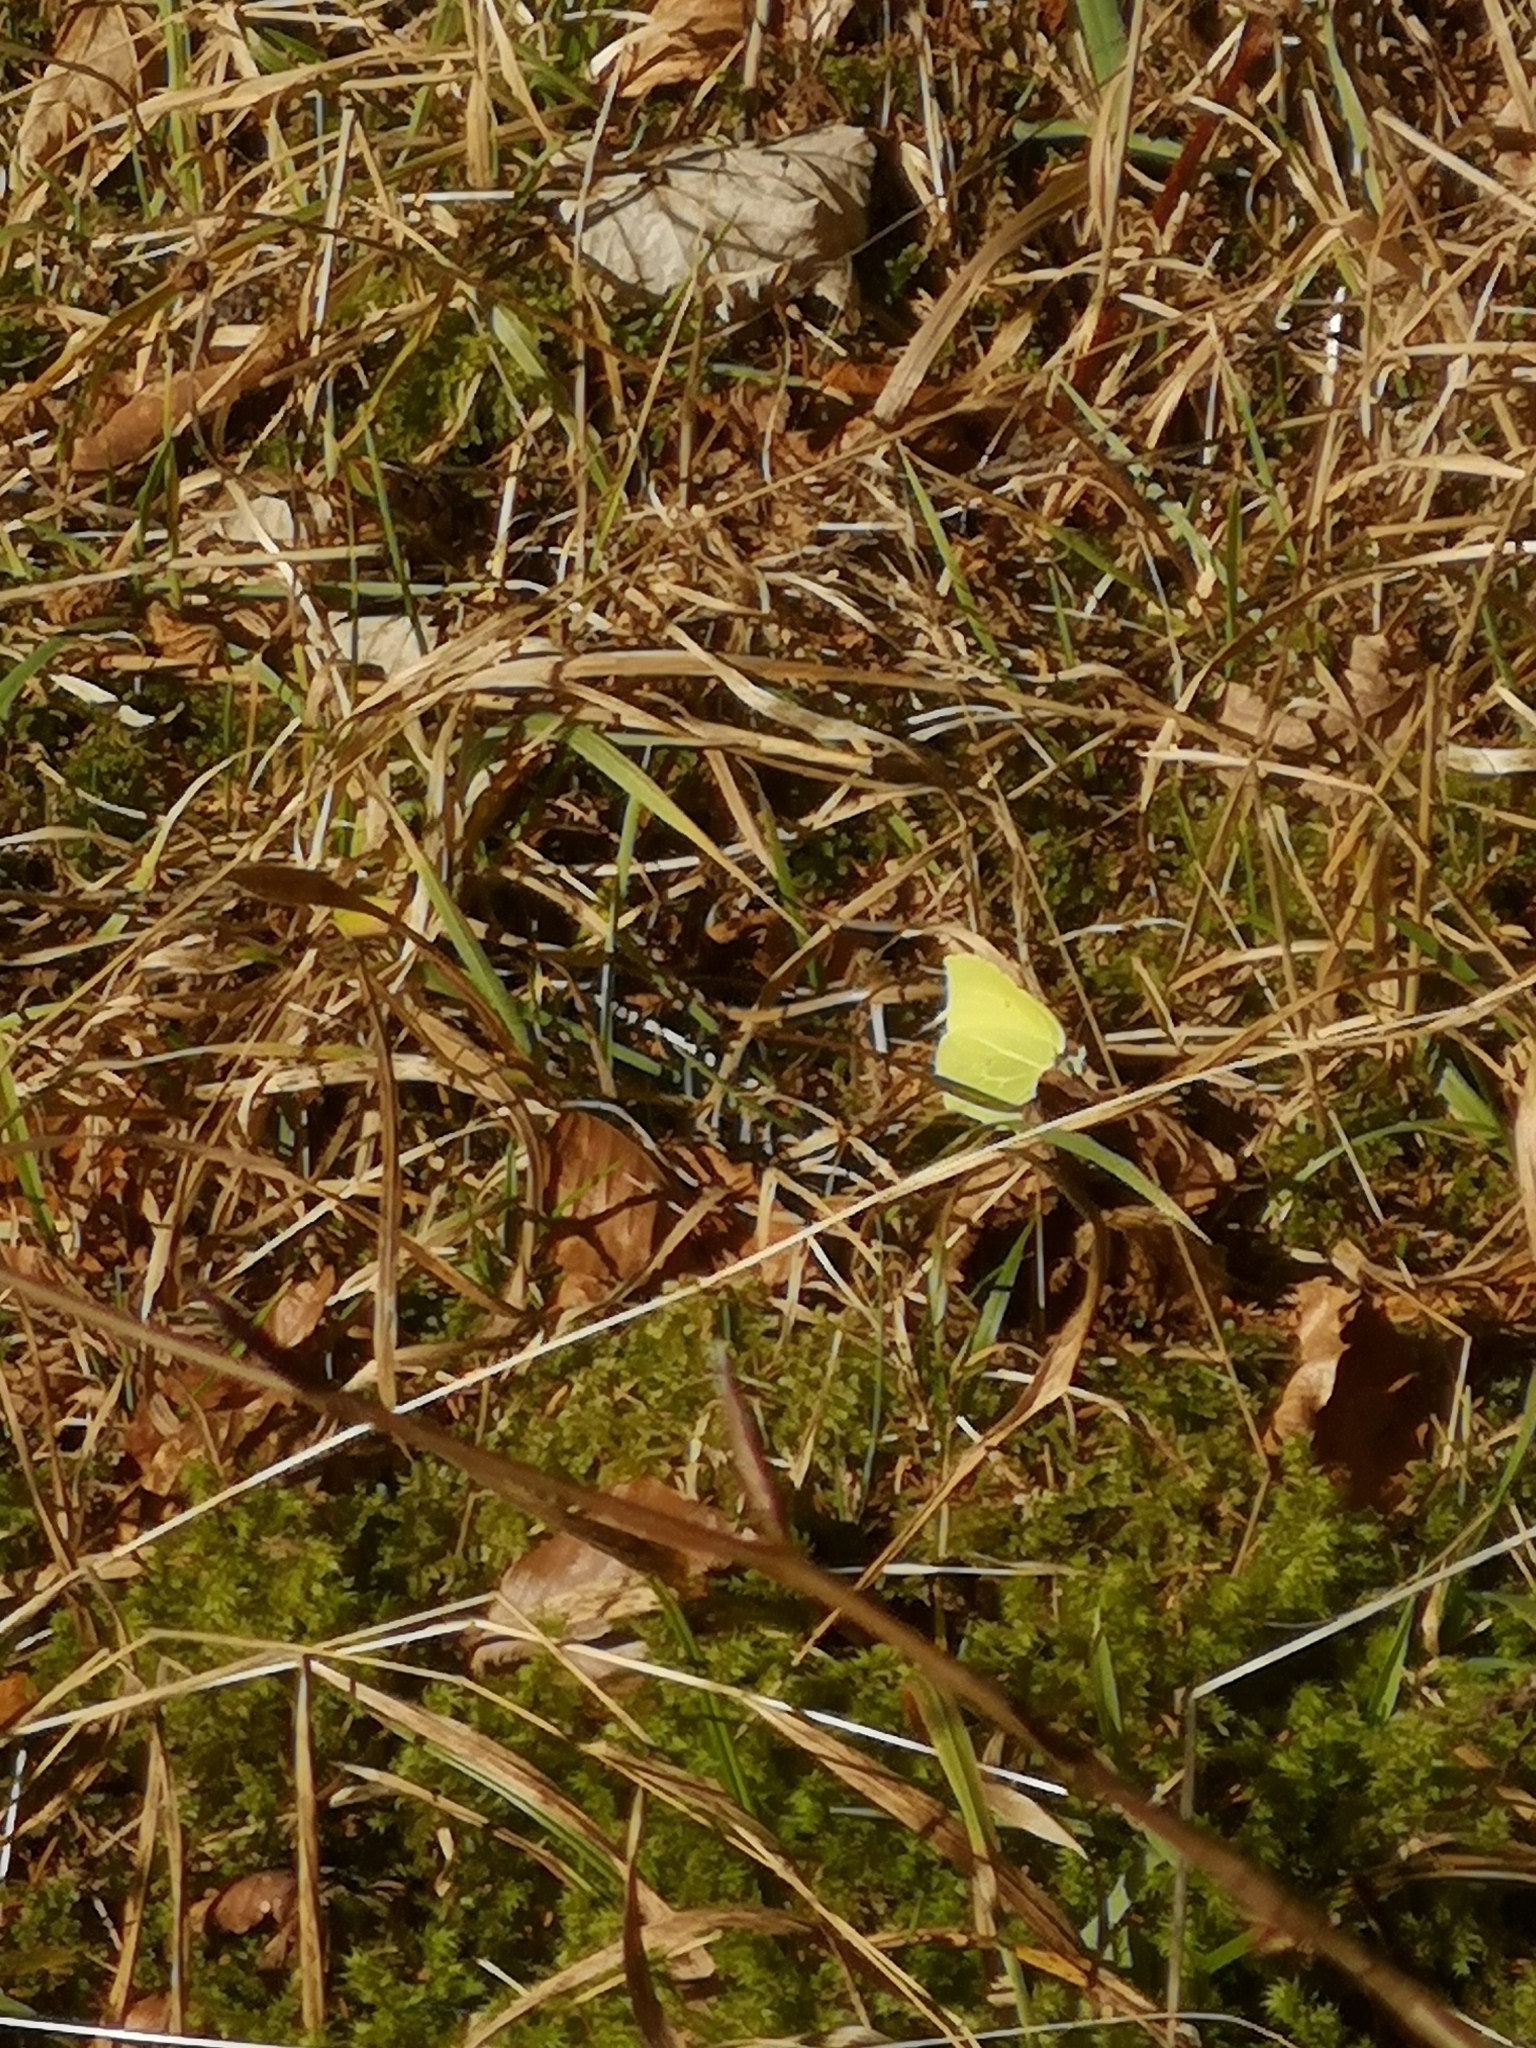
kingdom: Animalia
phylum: Arthropoda
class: Insecta
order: Lepidoptera
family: Pieridae
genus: Gonepteryx
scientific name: Gonepteryx rhamni
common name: Brimstone
